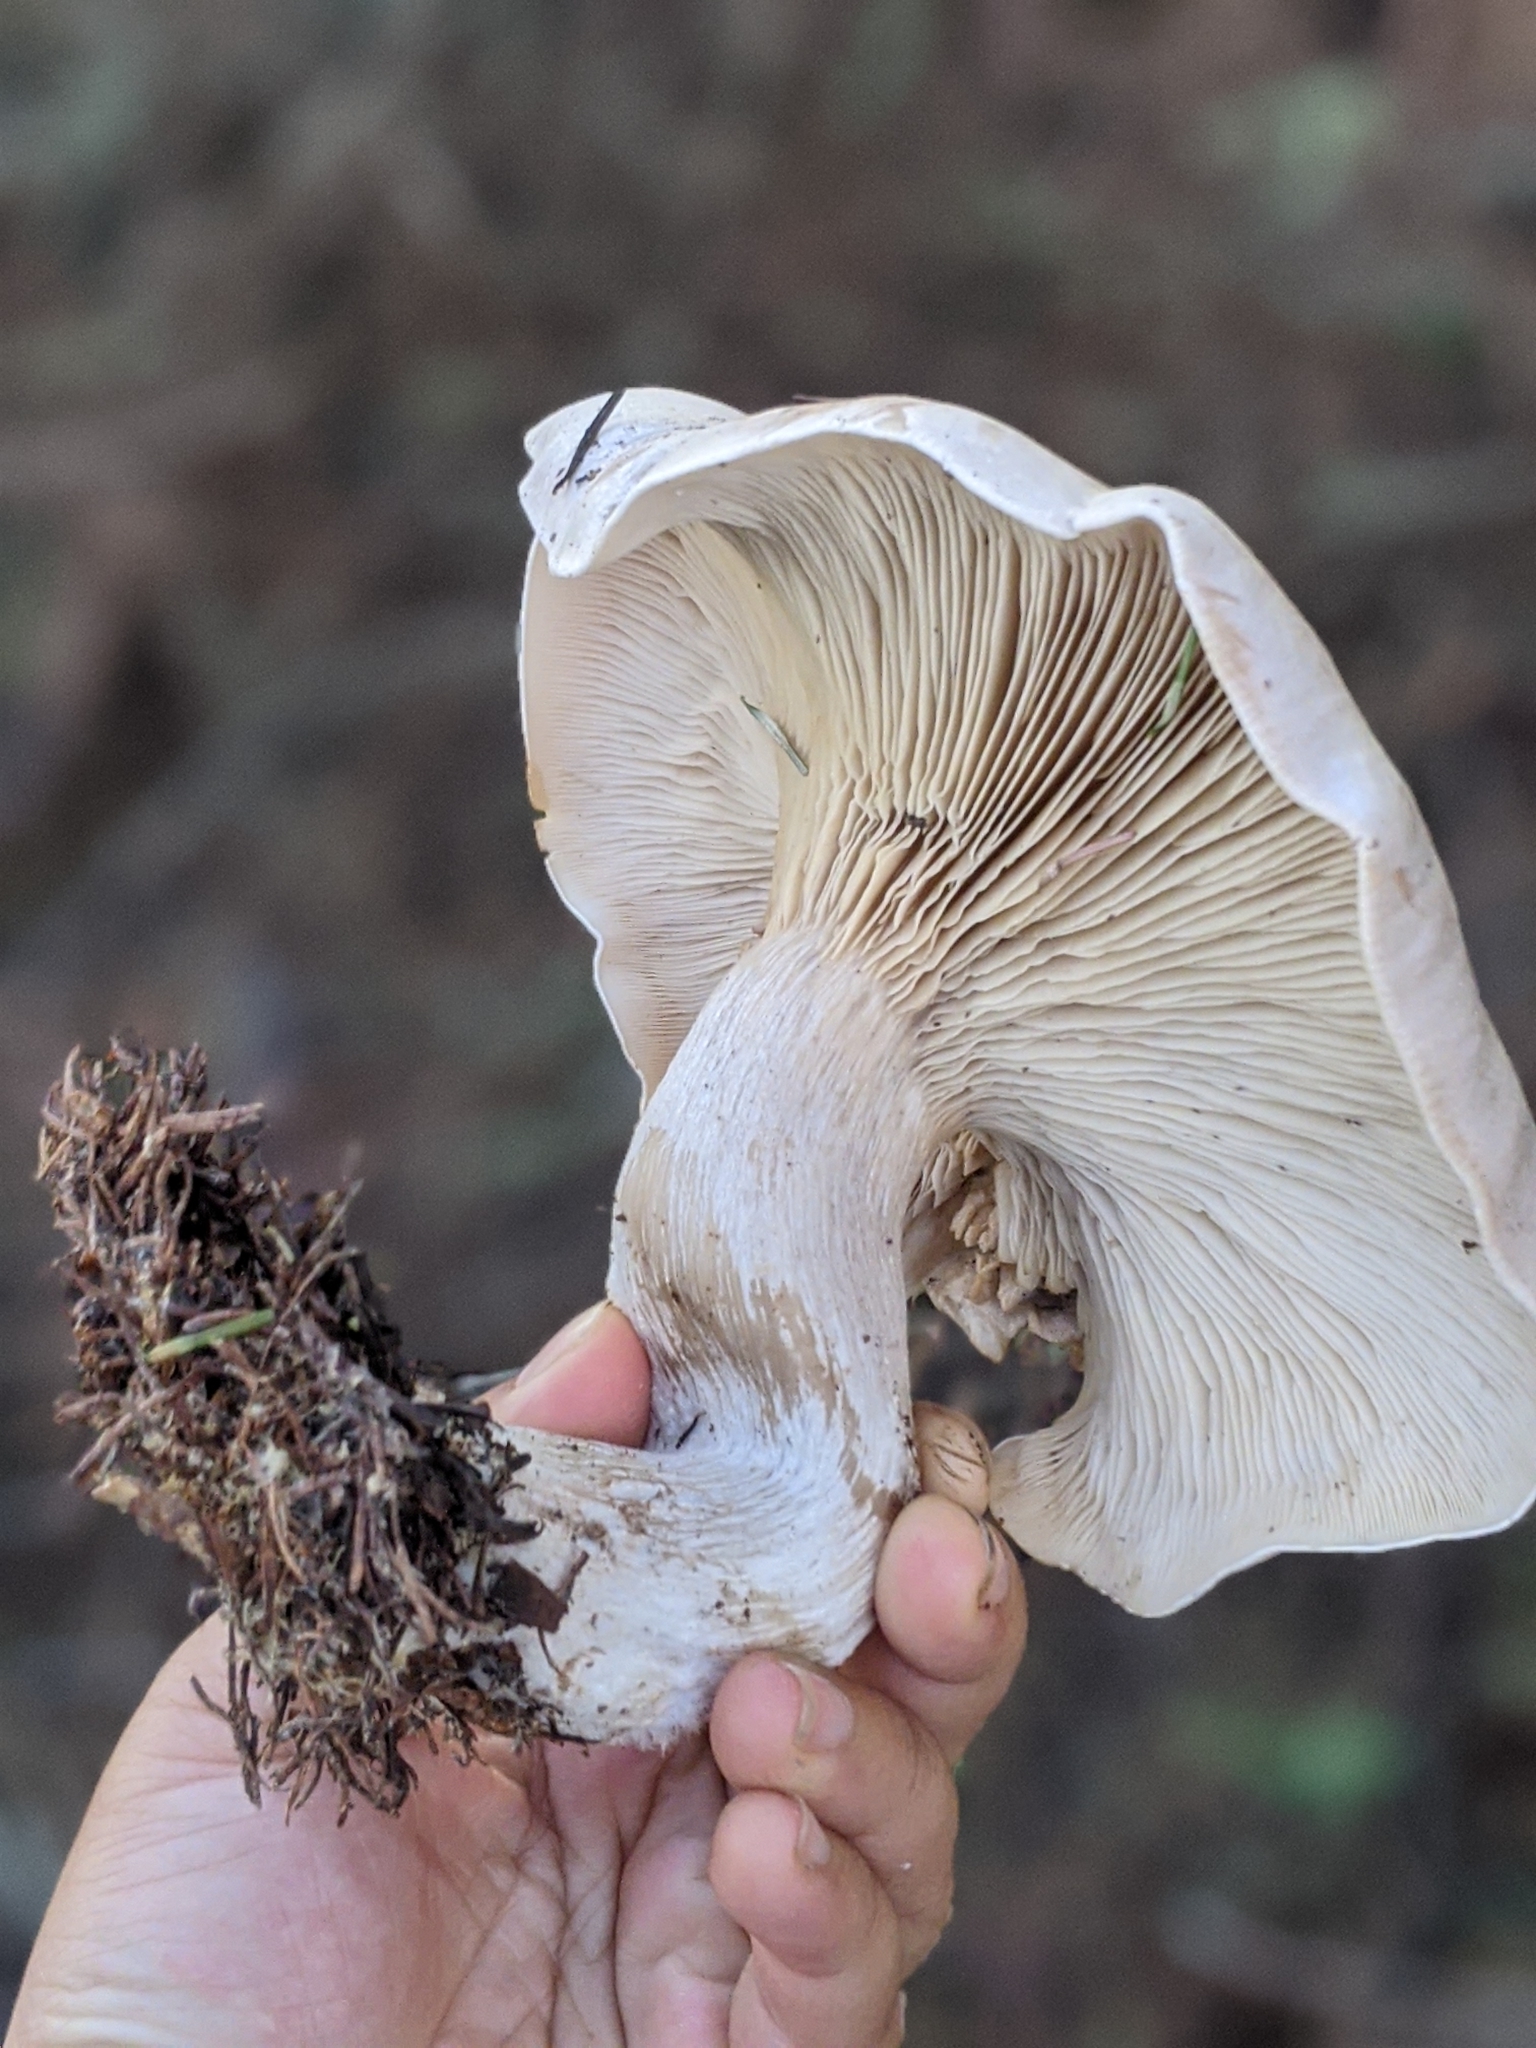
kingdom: Fungi
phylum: Basidiomycota
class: Agaricomycetes
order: Agaricales
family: Tricholomataceae
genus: Clitocybe
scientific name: Clitocybe nebularis
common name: Clouded agaric
